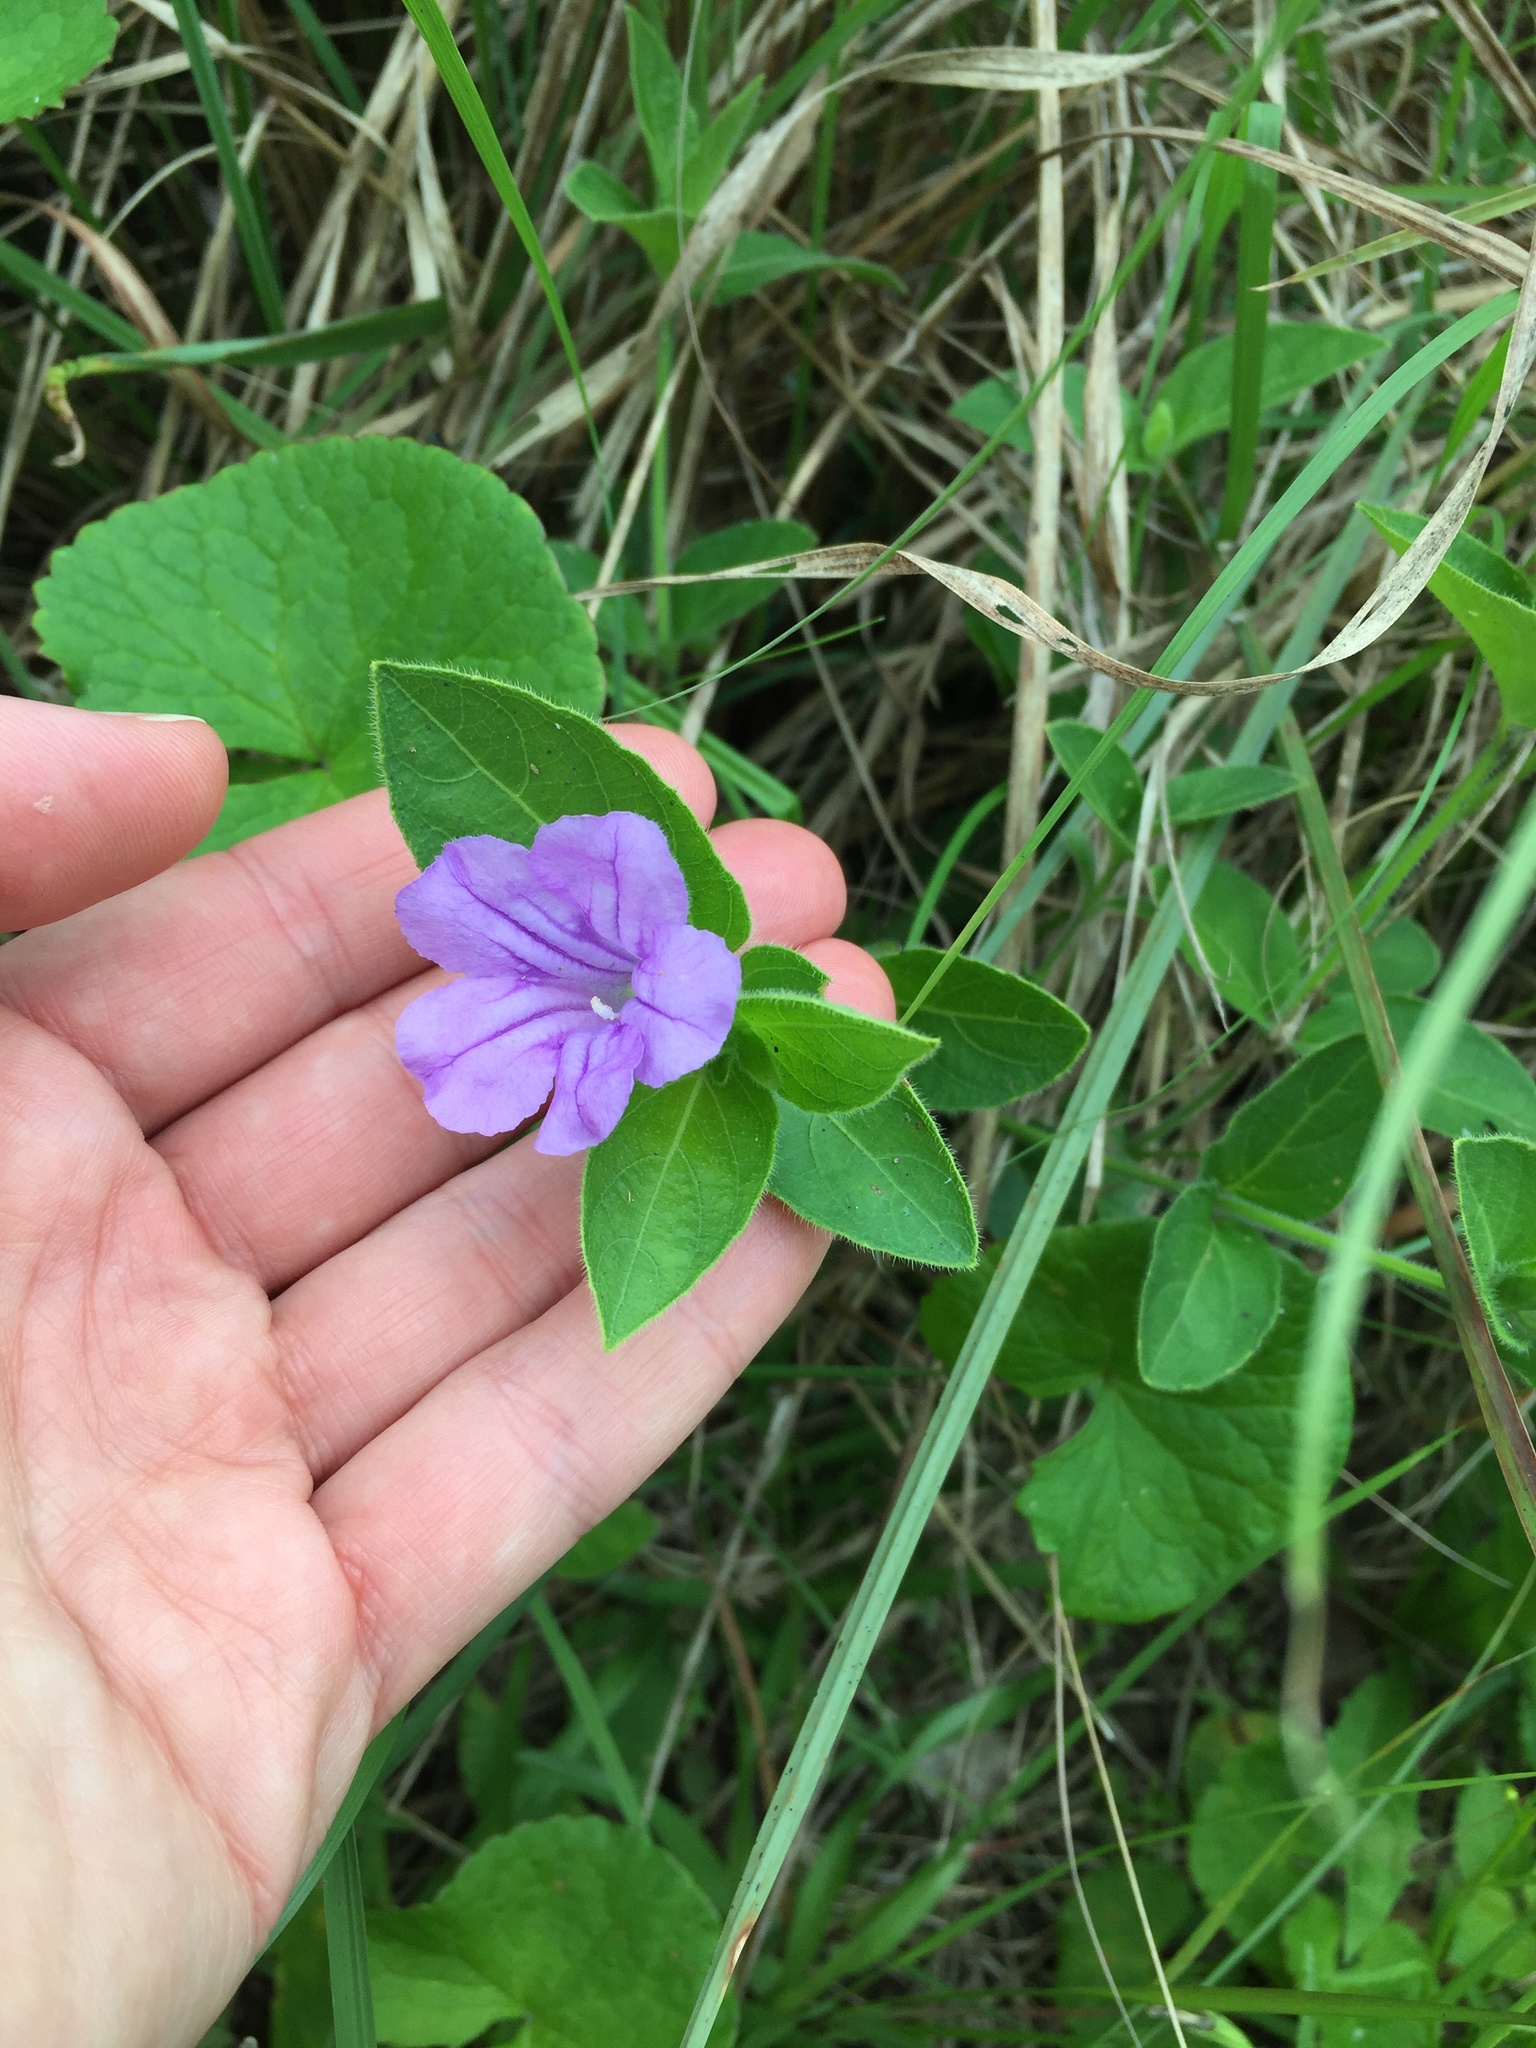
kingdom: Plantae
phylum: Tracheophyta
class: Magnoliopsida
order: Lamiales
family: Acanthaceae
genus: Ruellia
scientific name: Ruellia cordata
